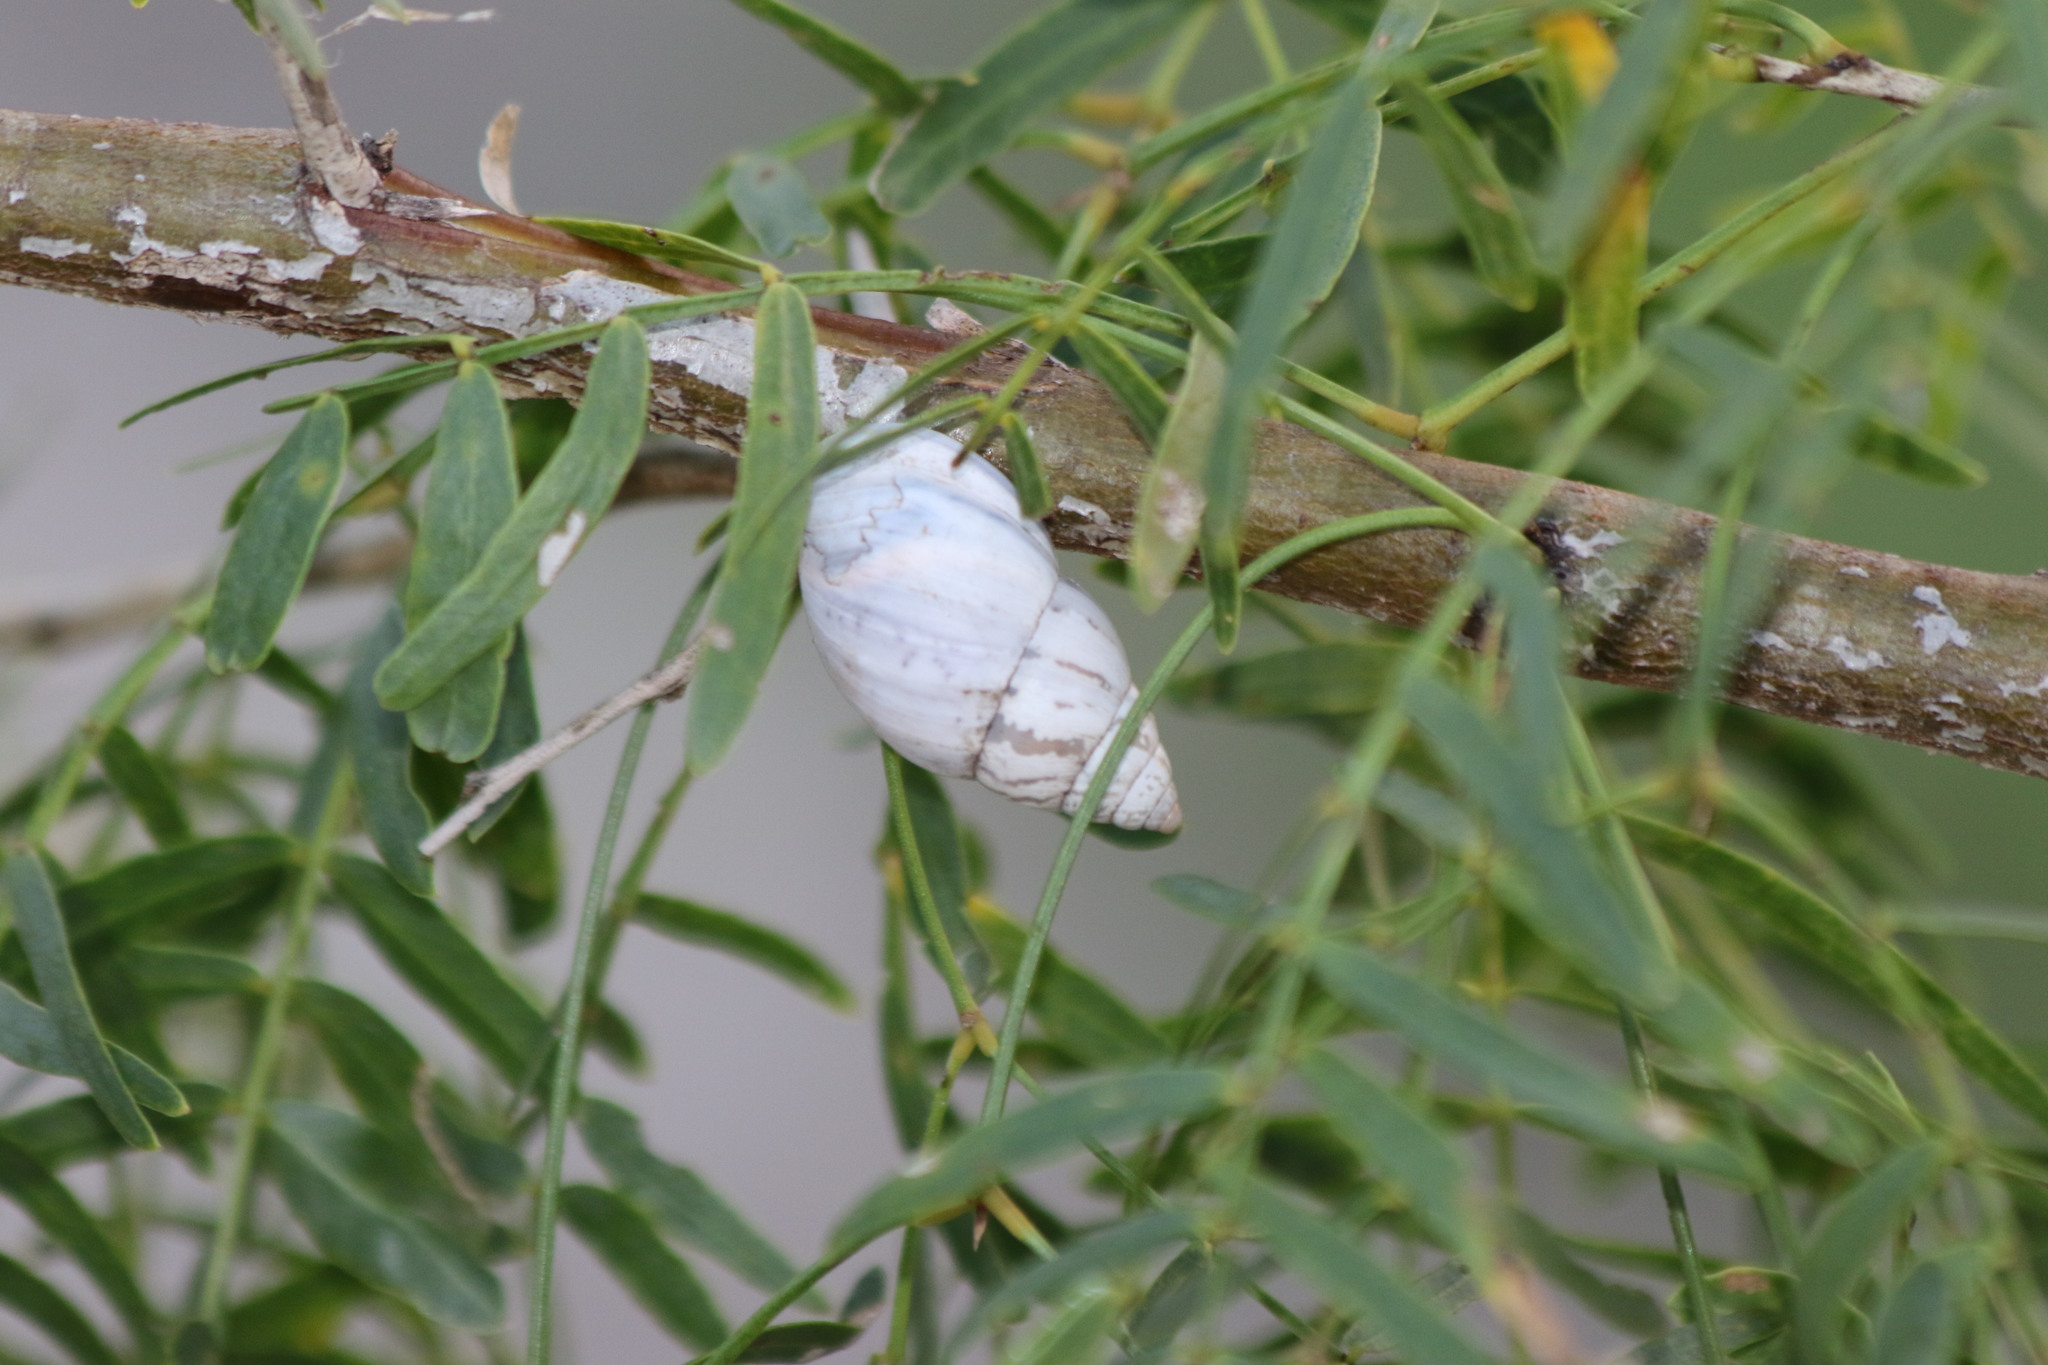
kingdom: Animalia
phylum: Mollusca
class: Gastropoda
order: Stylommatophora
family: Bulimulidae
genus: Rabdotus
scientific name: Rabdotus alternatus
